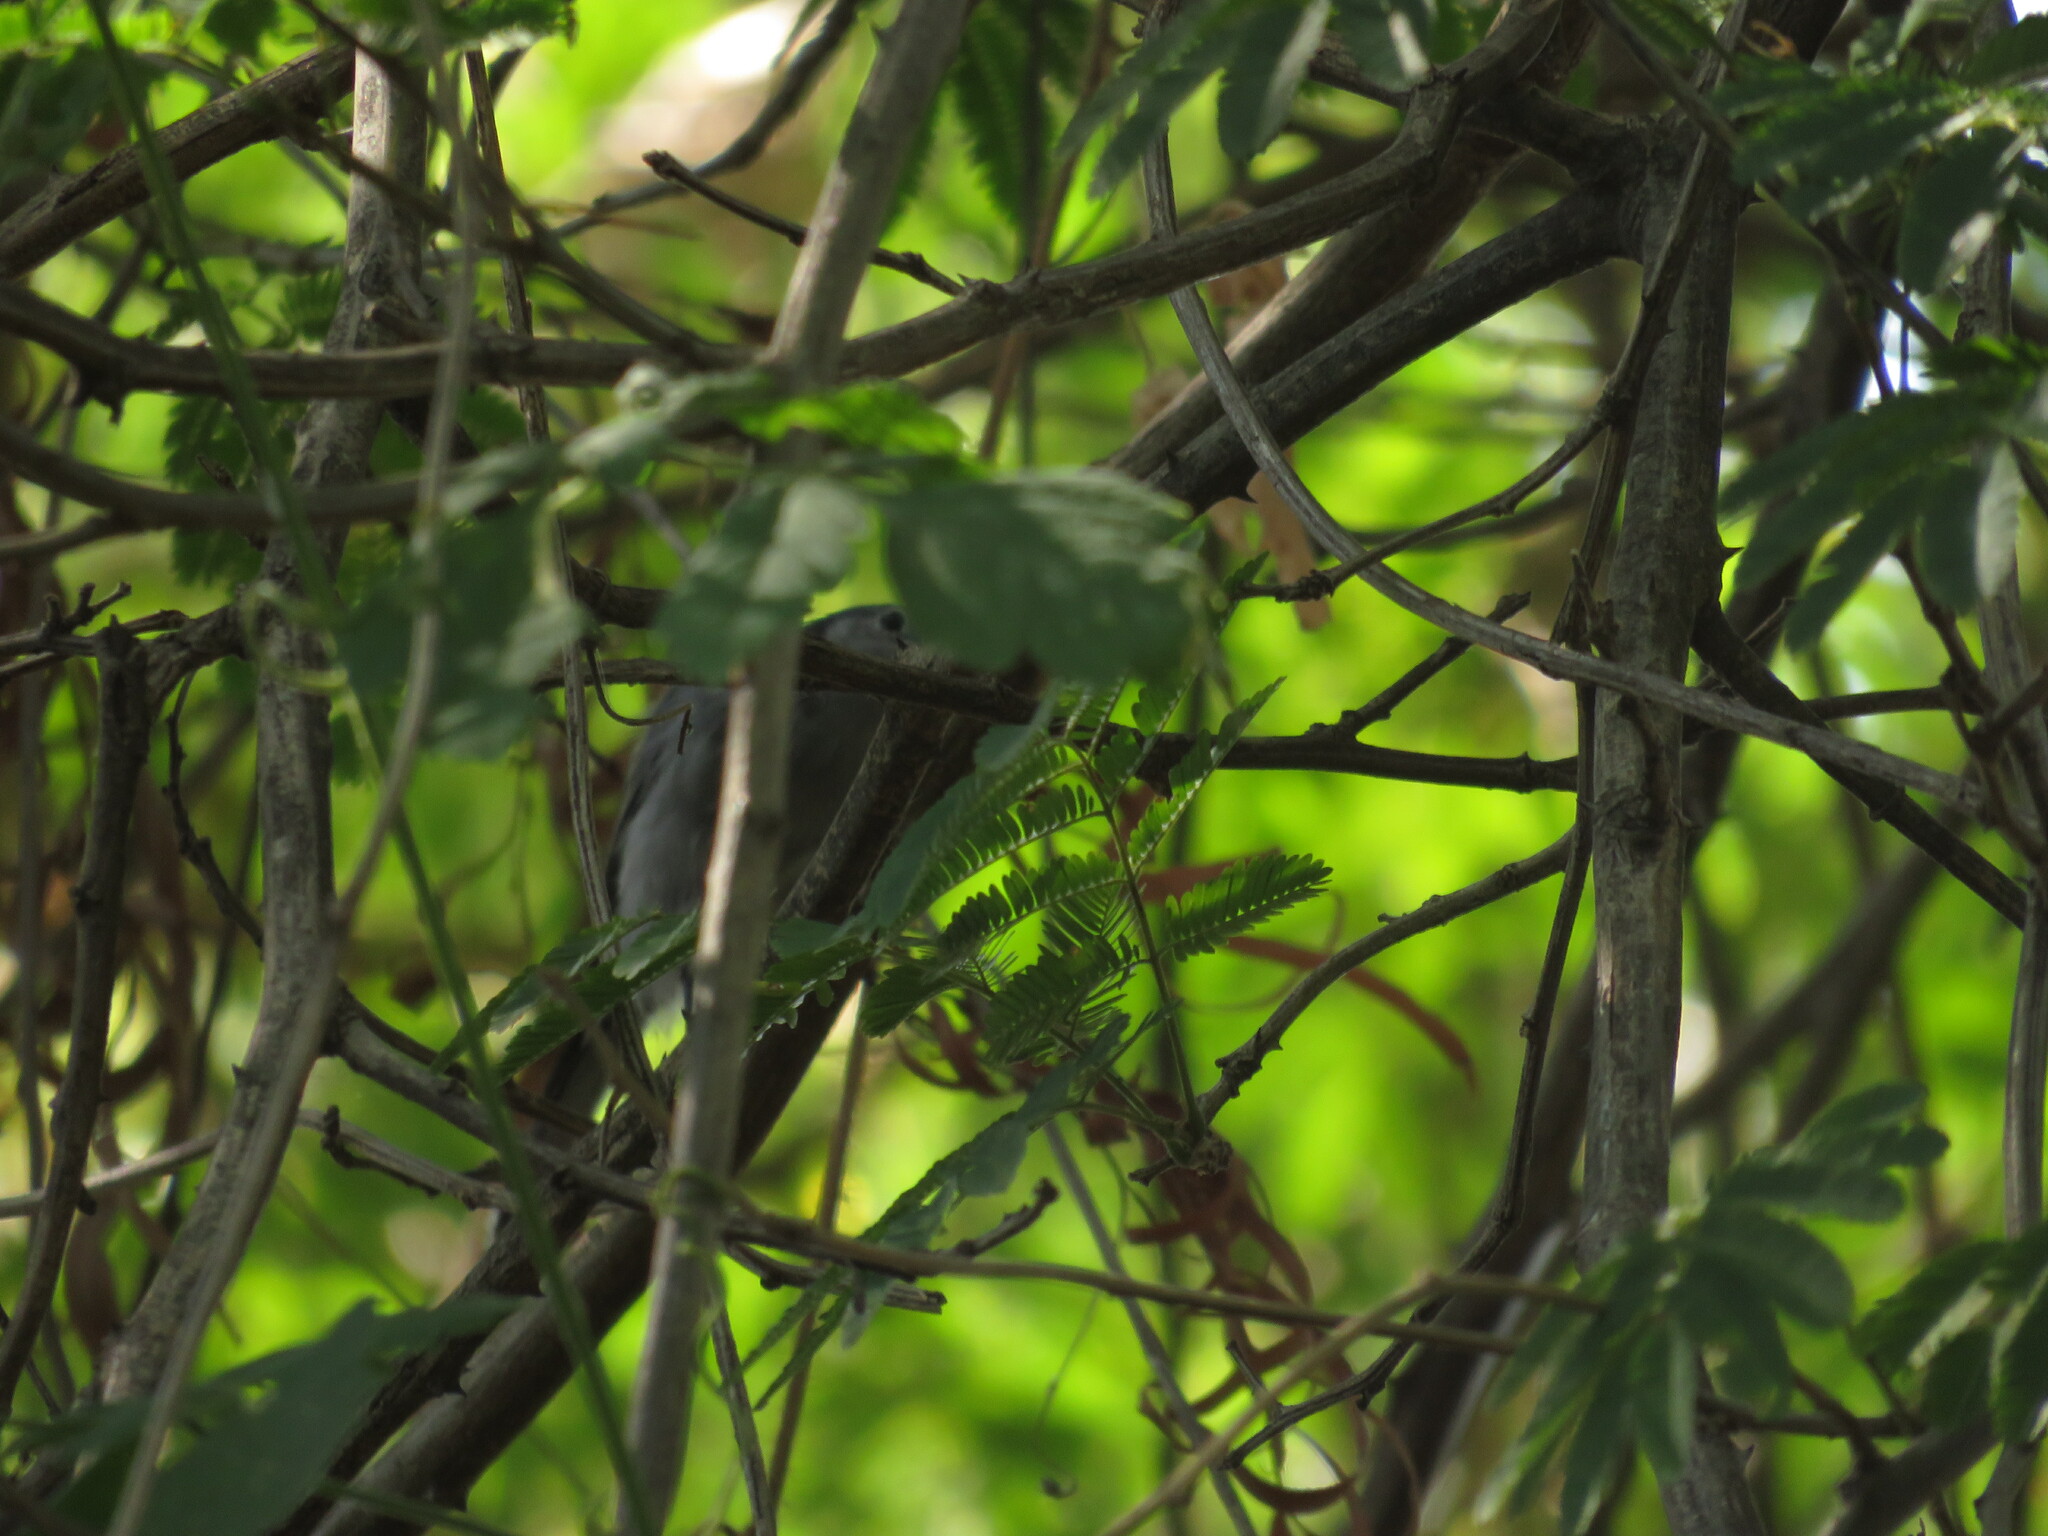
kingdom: Animalia
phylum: Chordata
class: Aves
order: Passeriformes
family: Polioptilidae
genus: Polioptila
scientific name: Polioptila dumicola
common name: Masked gnatcatcher
